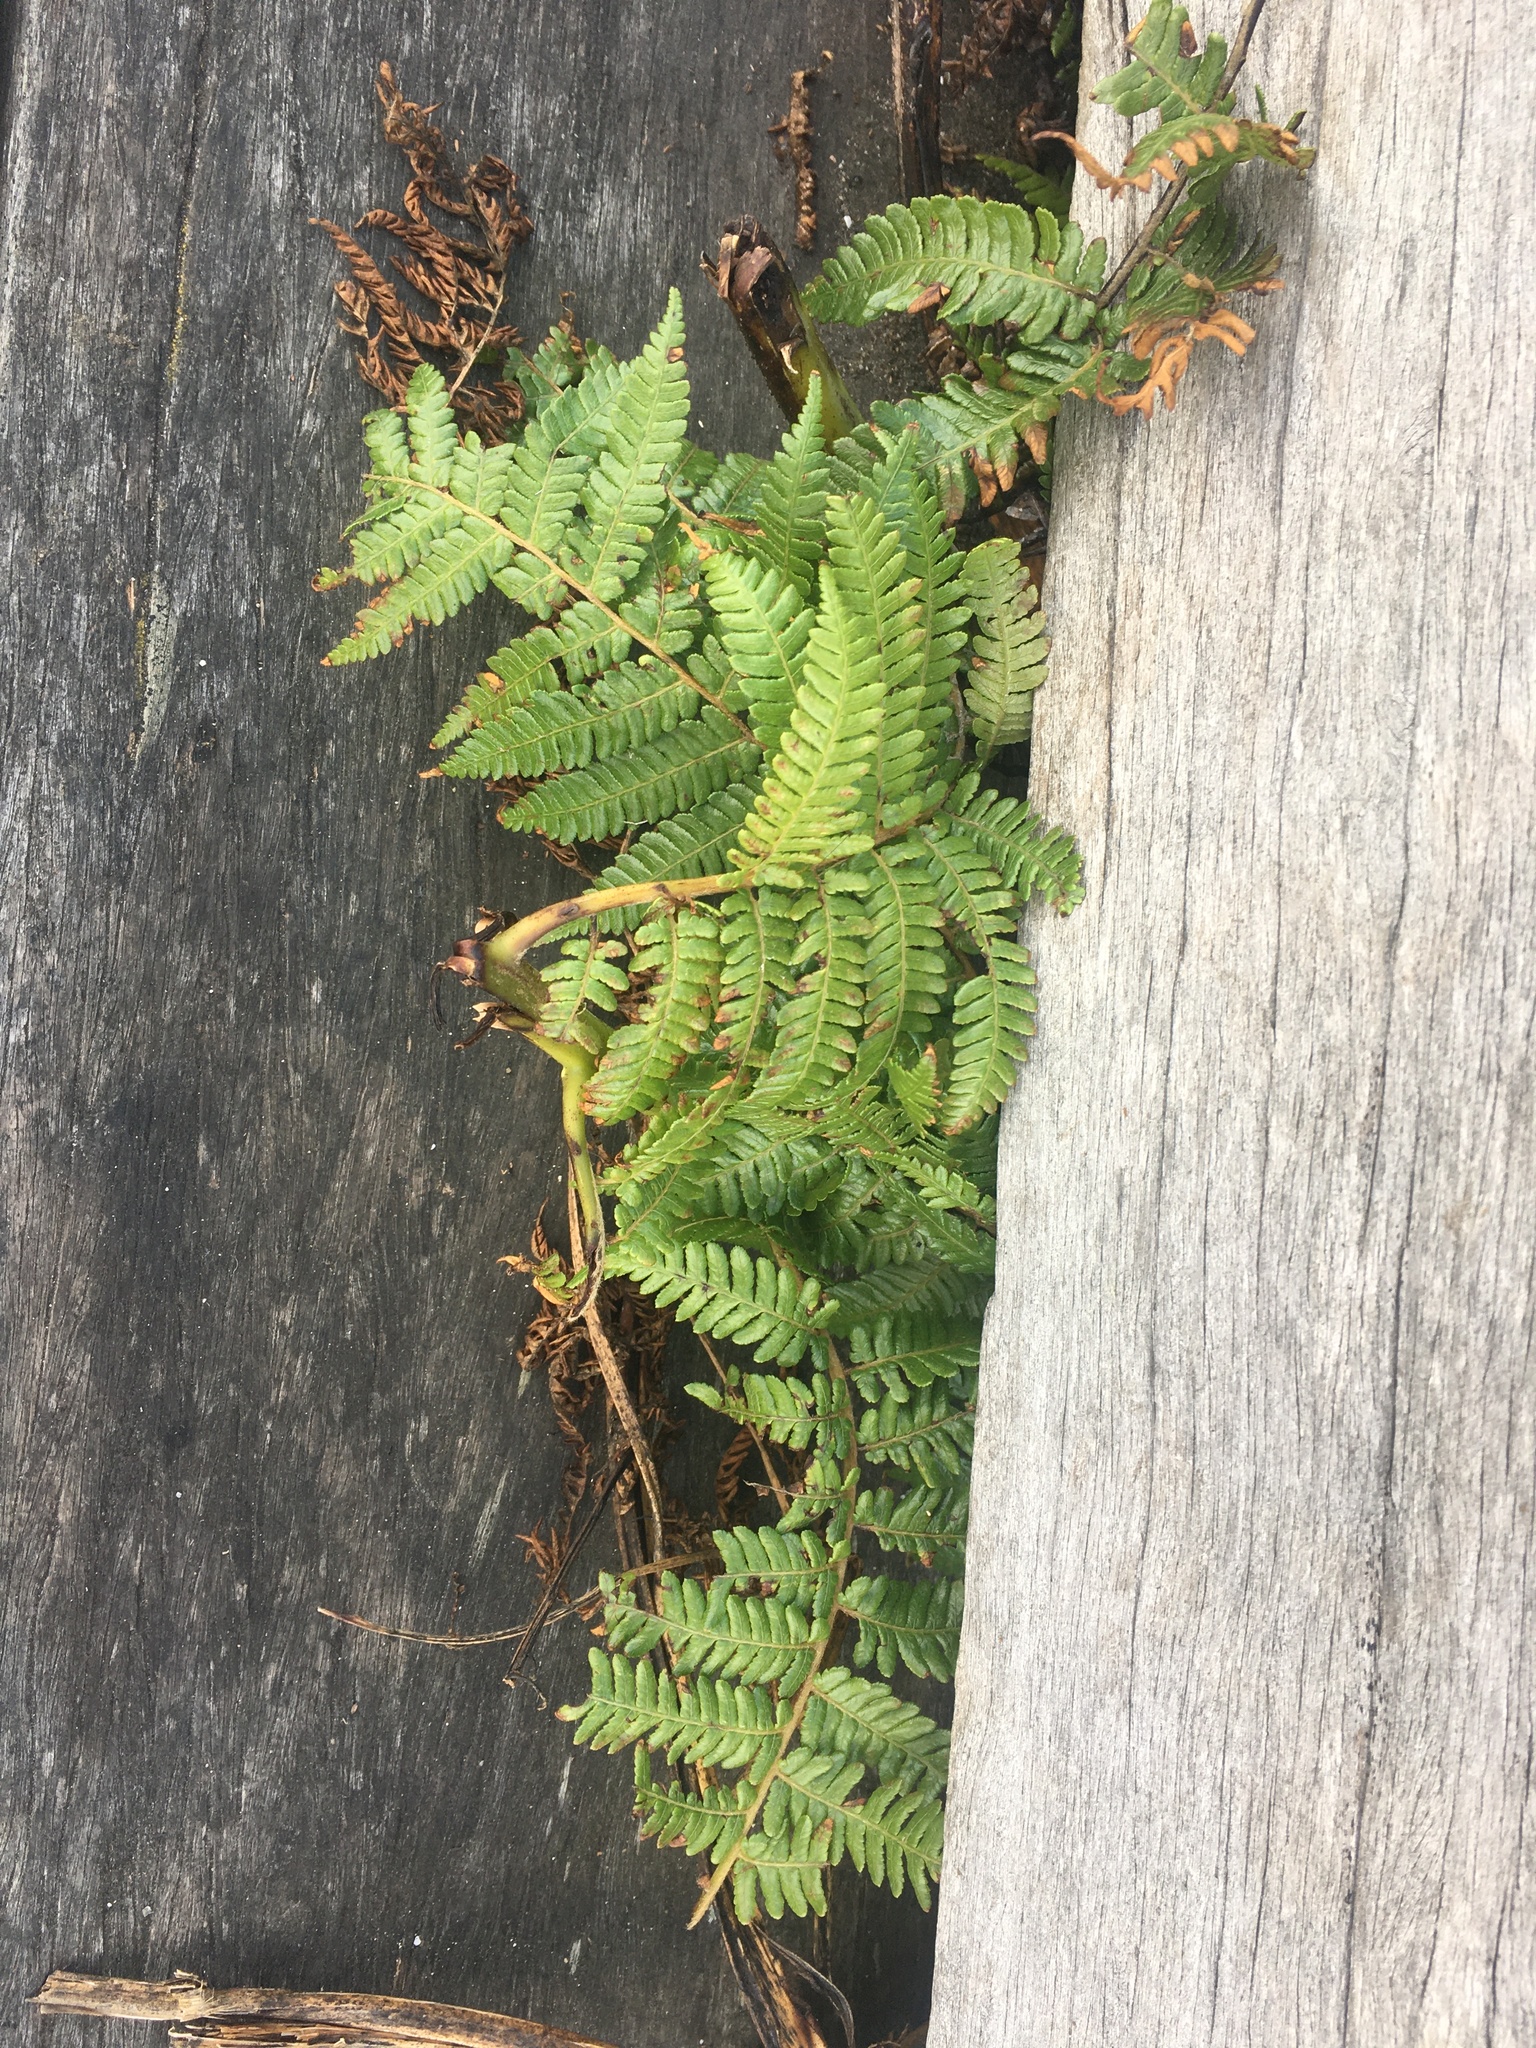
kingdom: Plantae
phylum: Tracheophyta
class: Polypodiopsida
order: Cyatheales
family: Cyatheaceae
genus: Sphaeropteris
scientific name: Sphaeropteris medullaris
